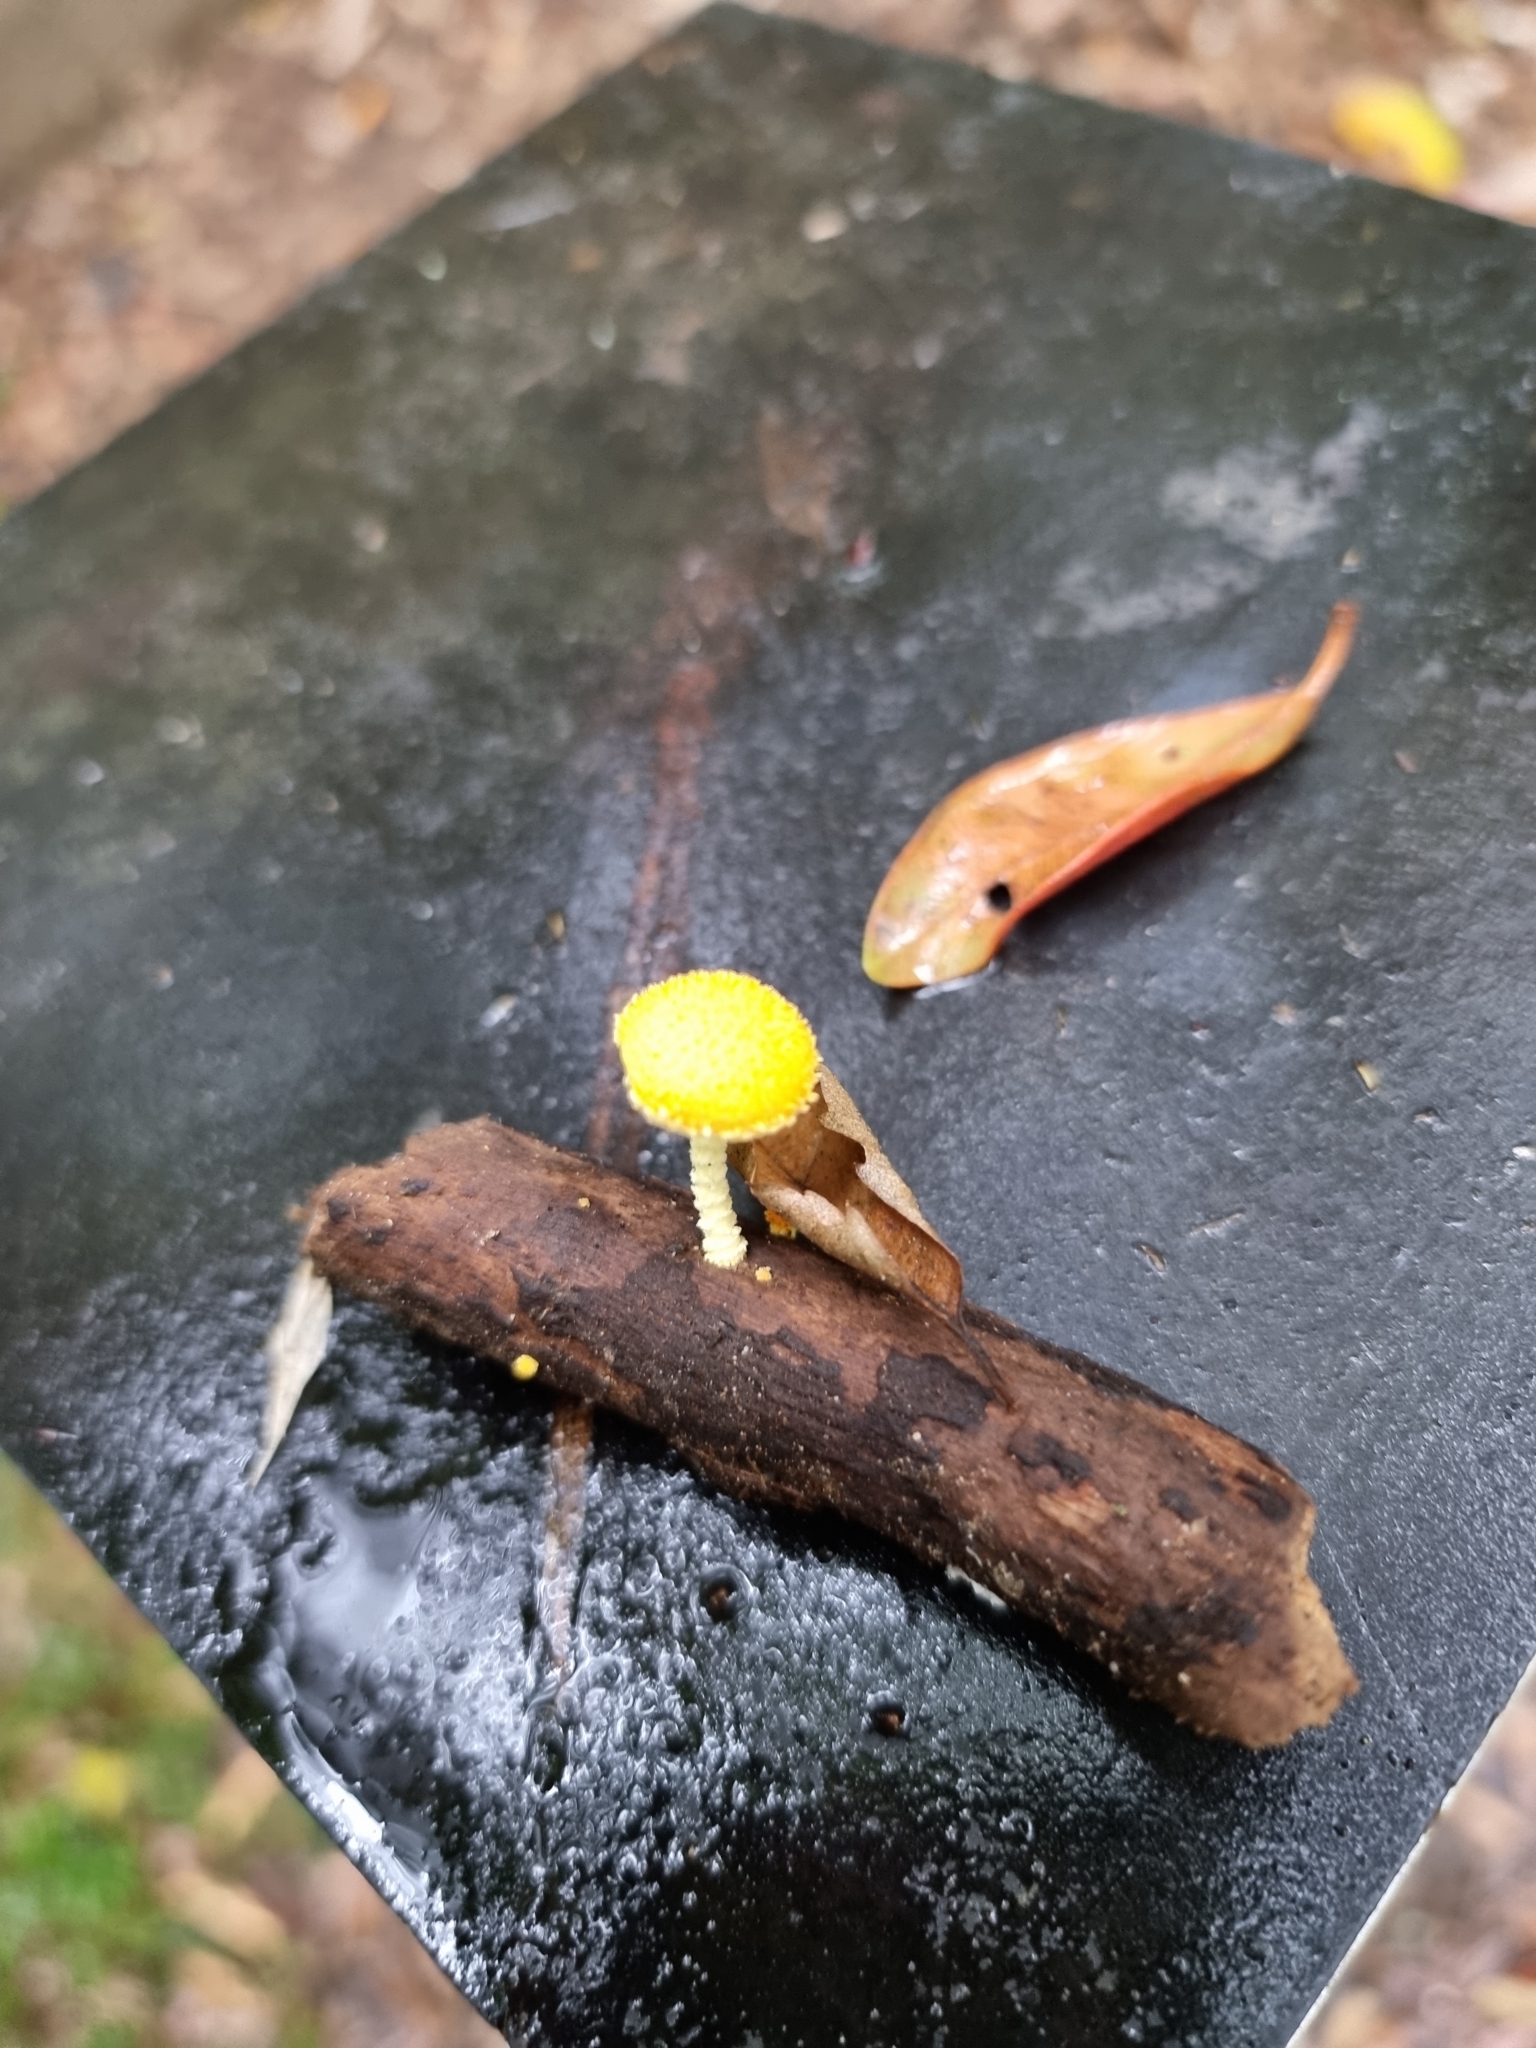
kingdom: Fungi
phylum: Basidiomycota
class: Agaricomycetes
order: Agaricales
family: Physalacriaceae
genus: Cyptotrama
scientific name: Cyptotrama asprata
